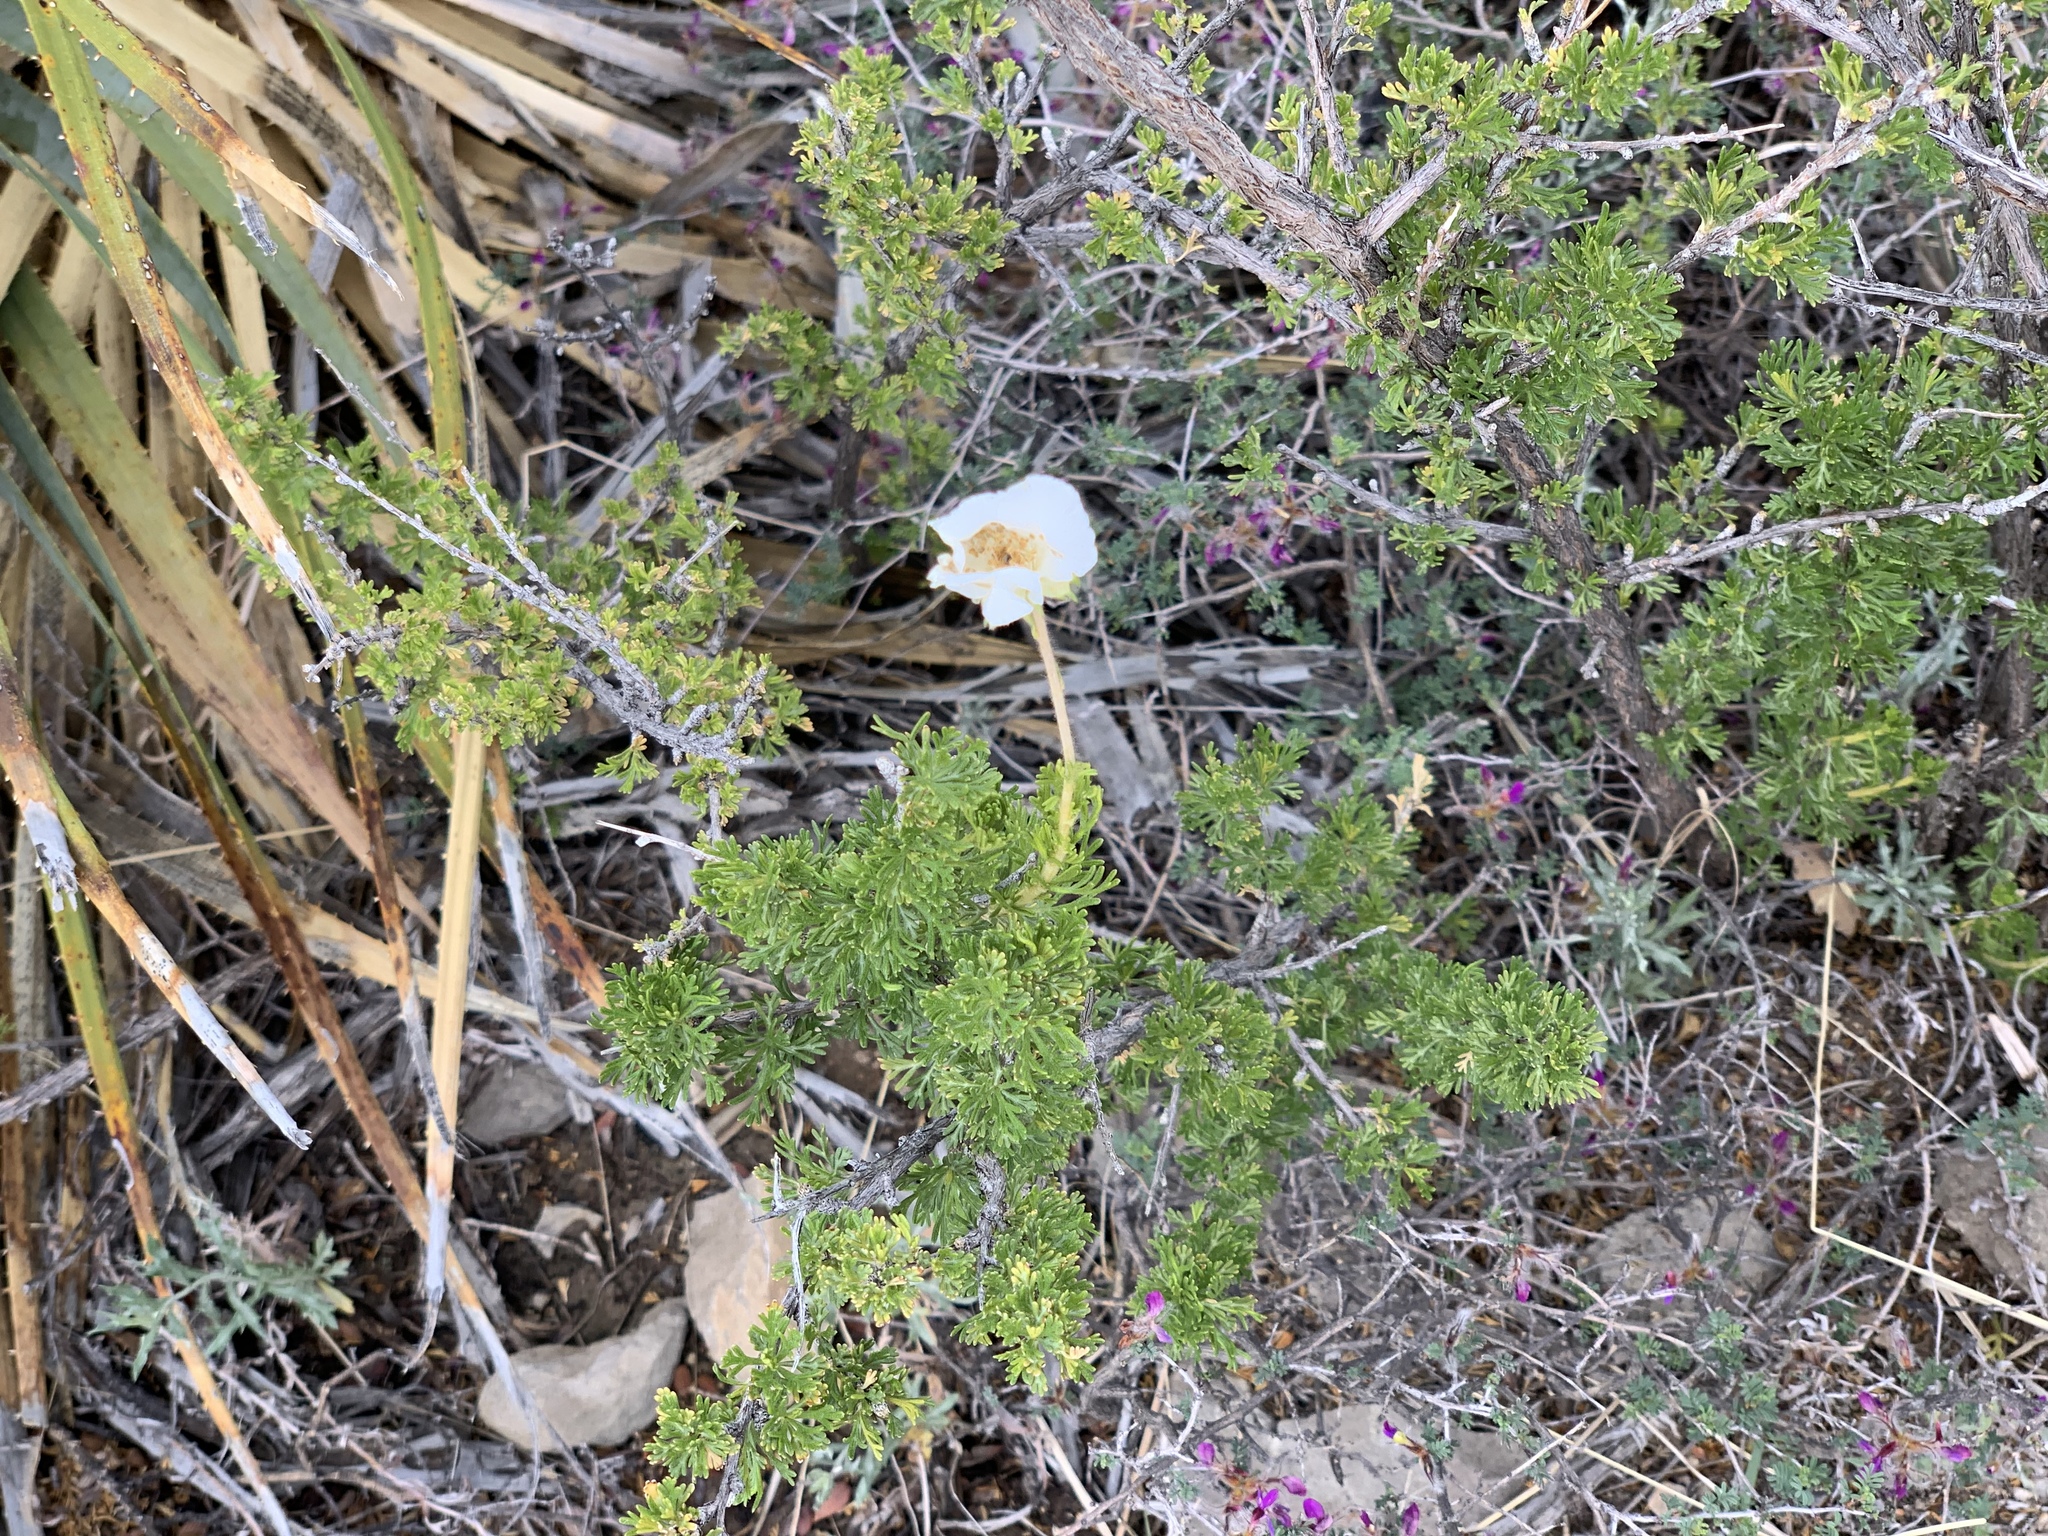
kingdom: Plantae
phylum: Tracheophyta
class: Magnoliopsida
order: Rosales
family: Rosaceae
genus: Fallugia
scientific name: Fallugia paradoxa
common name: Apache-plume
